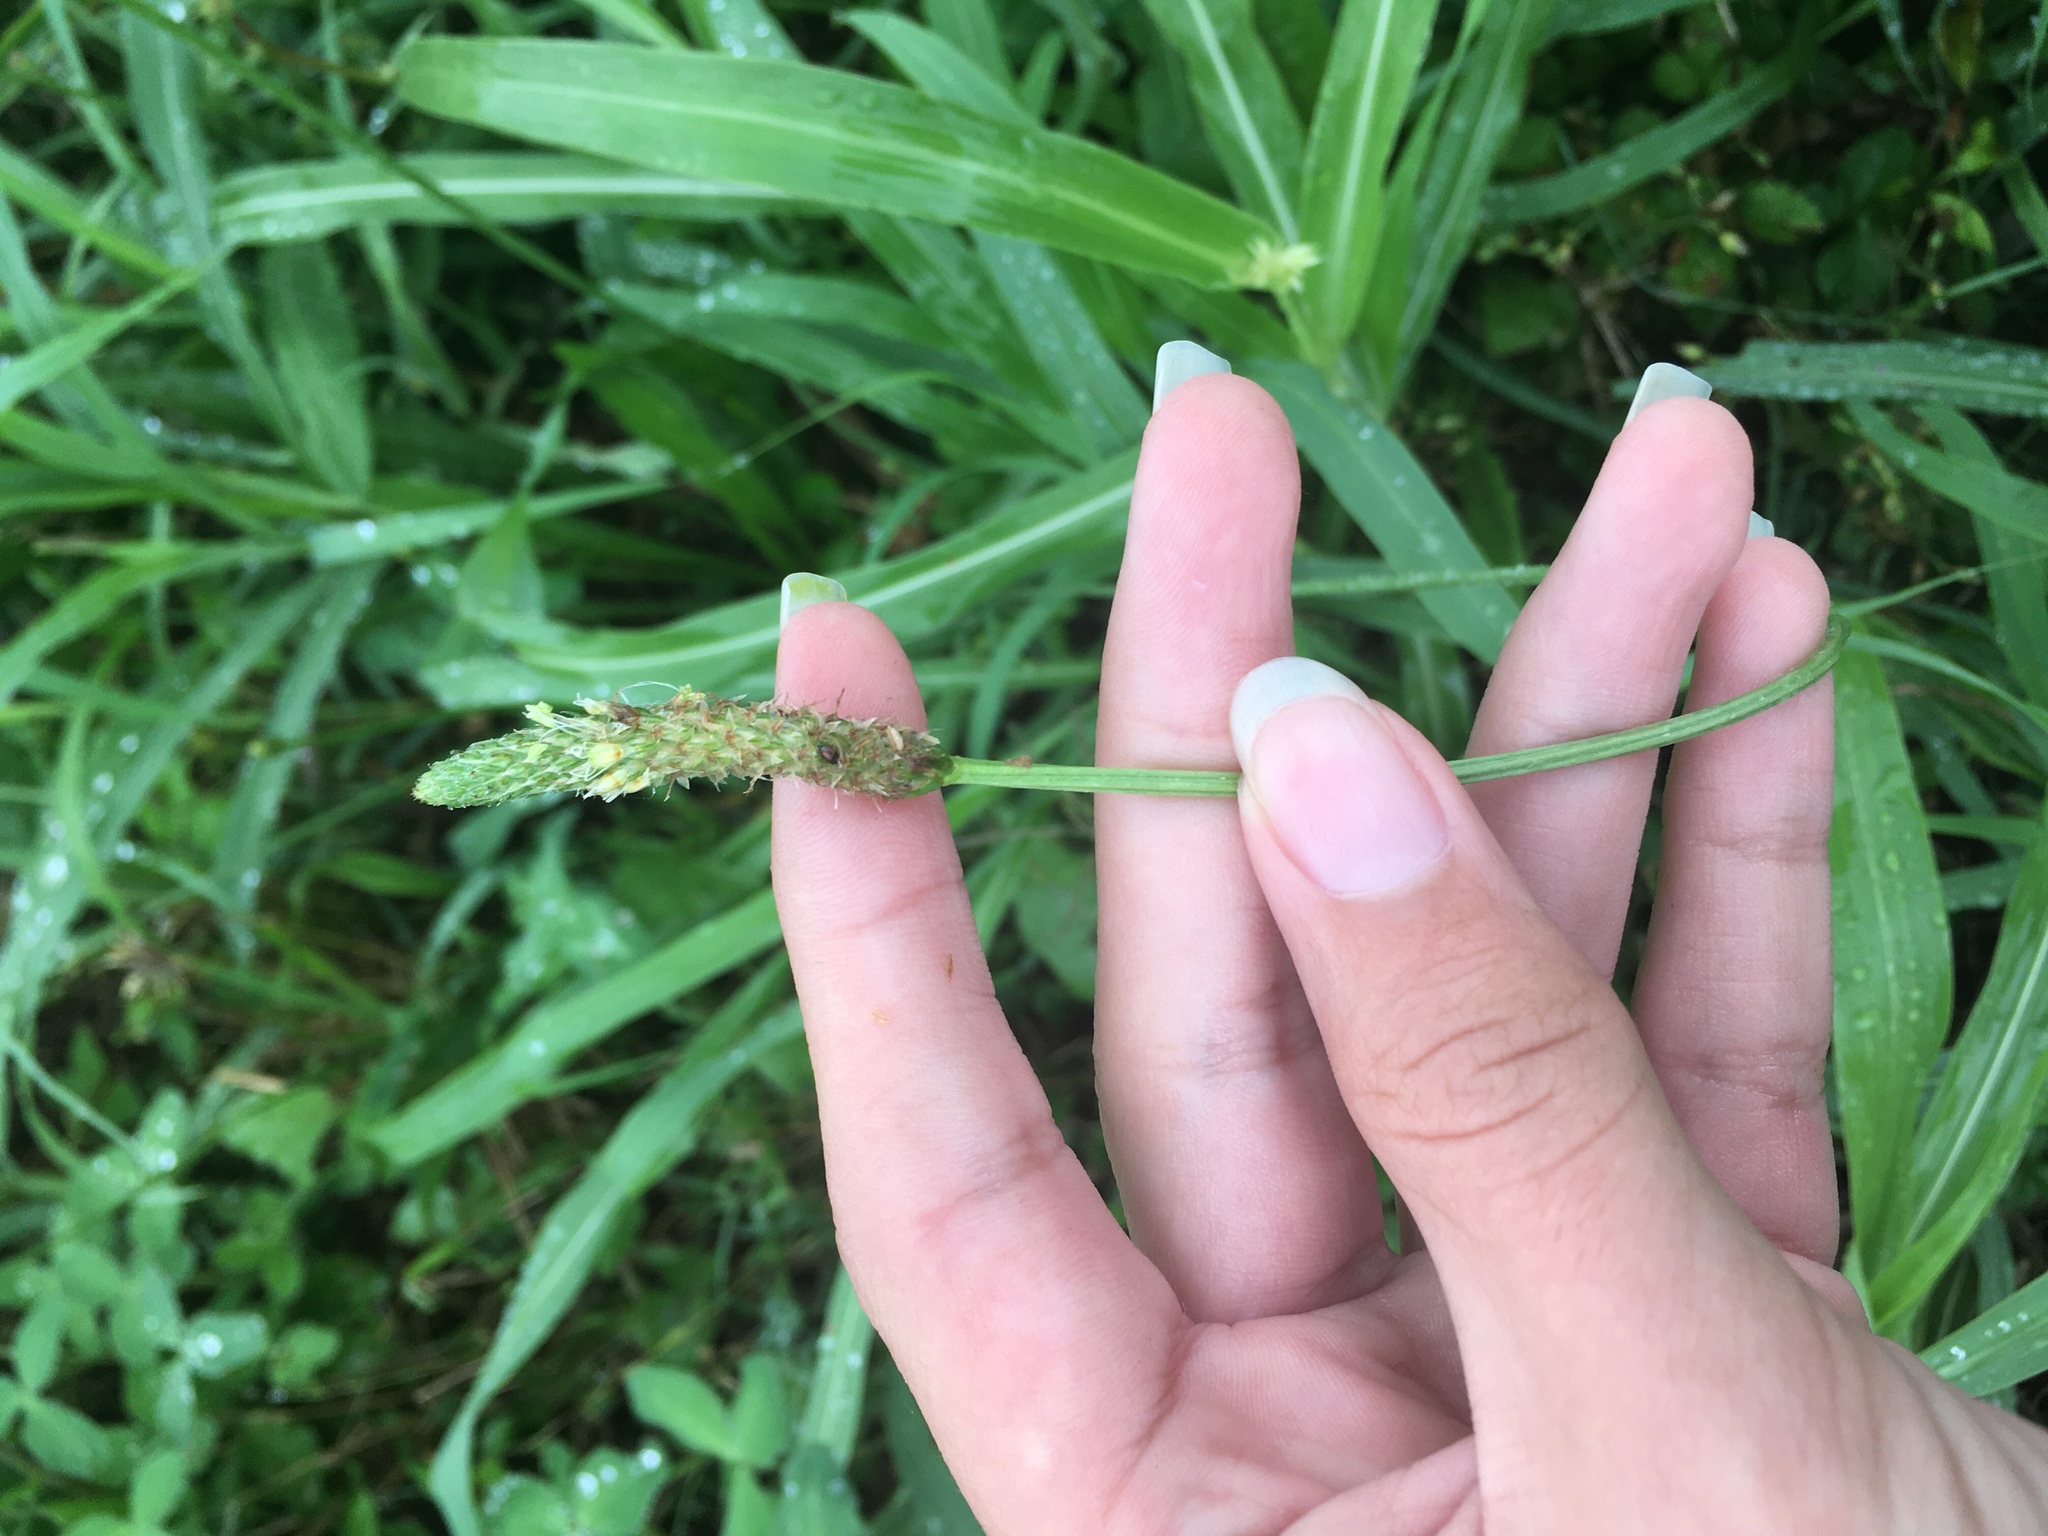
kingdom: Plantae
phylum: Tracheophyta
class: Magnoliopsida
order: Lamiales
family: Plantaginaceae
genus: Plantago
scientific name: Plantago lanceolata
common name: Ribwort plantain
